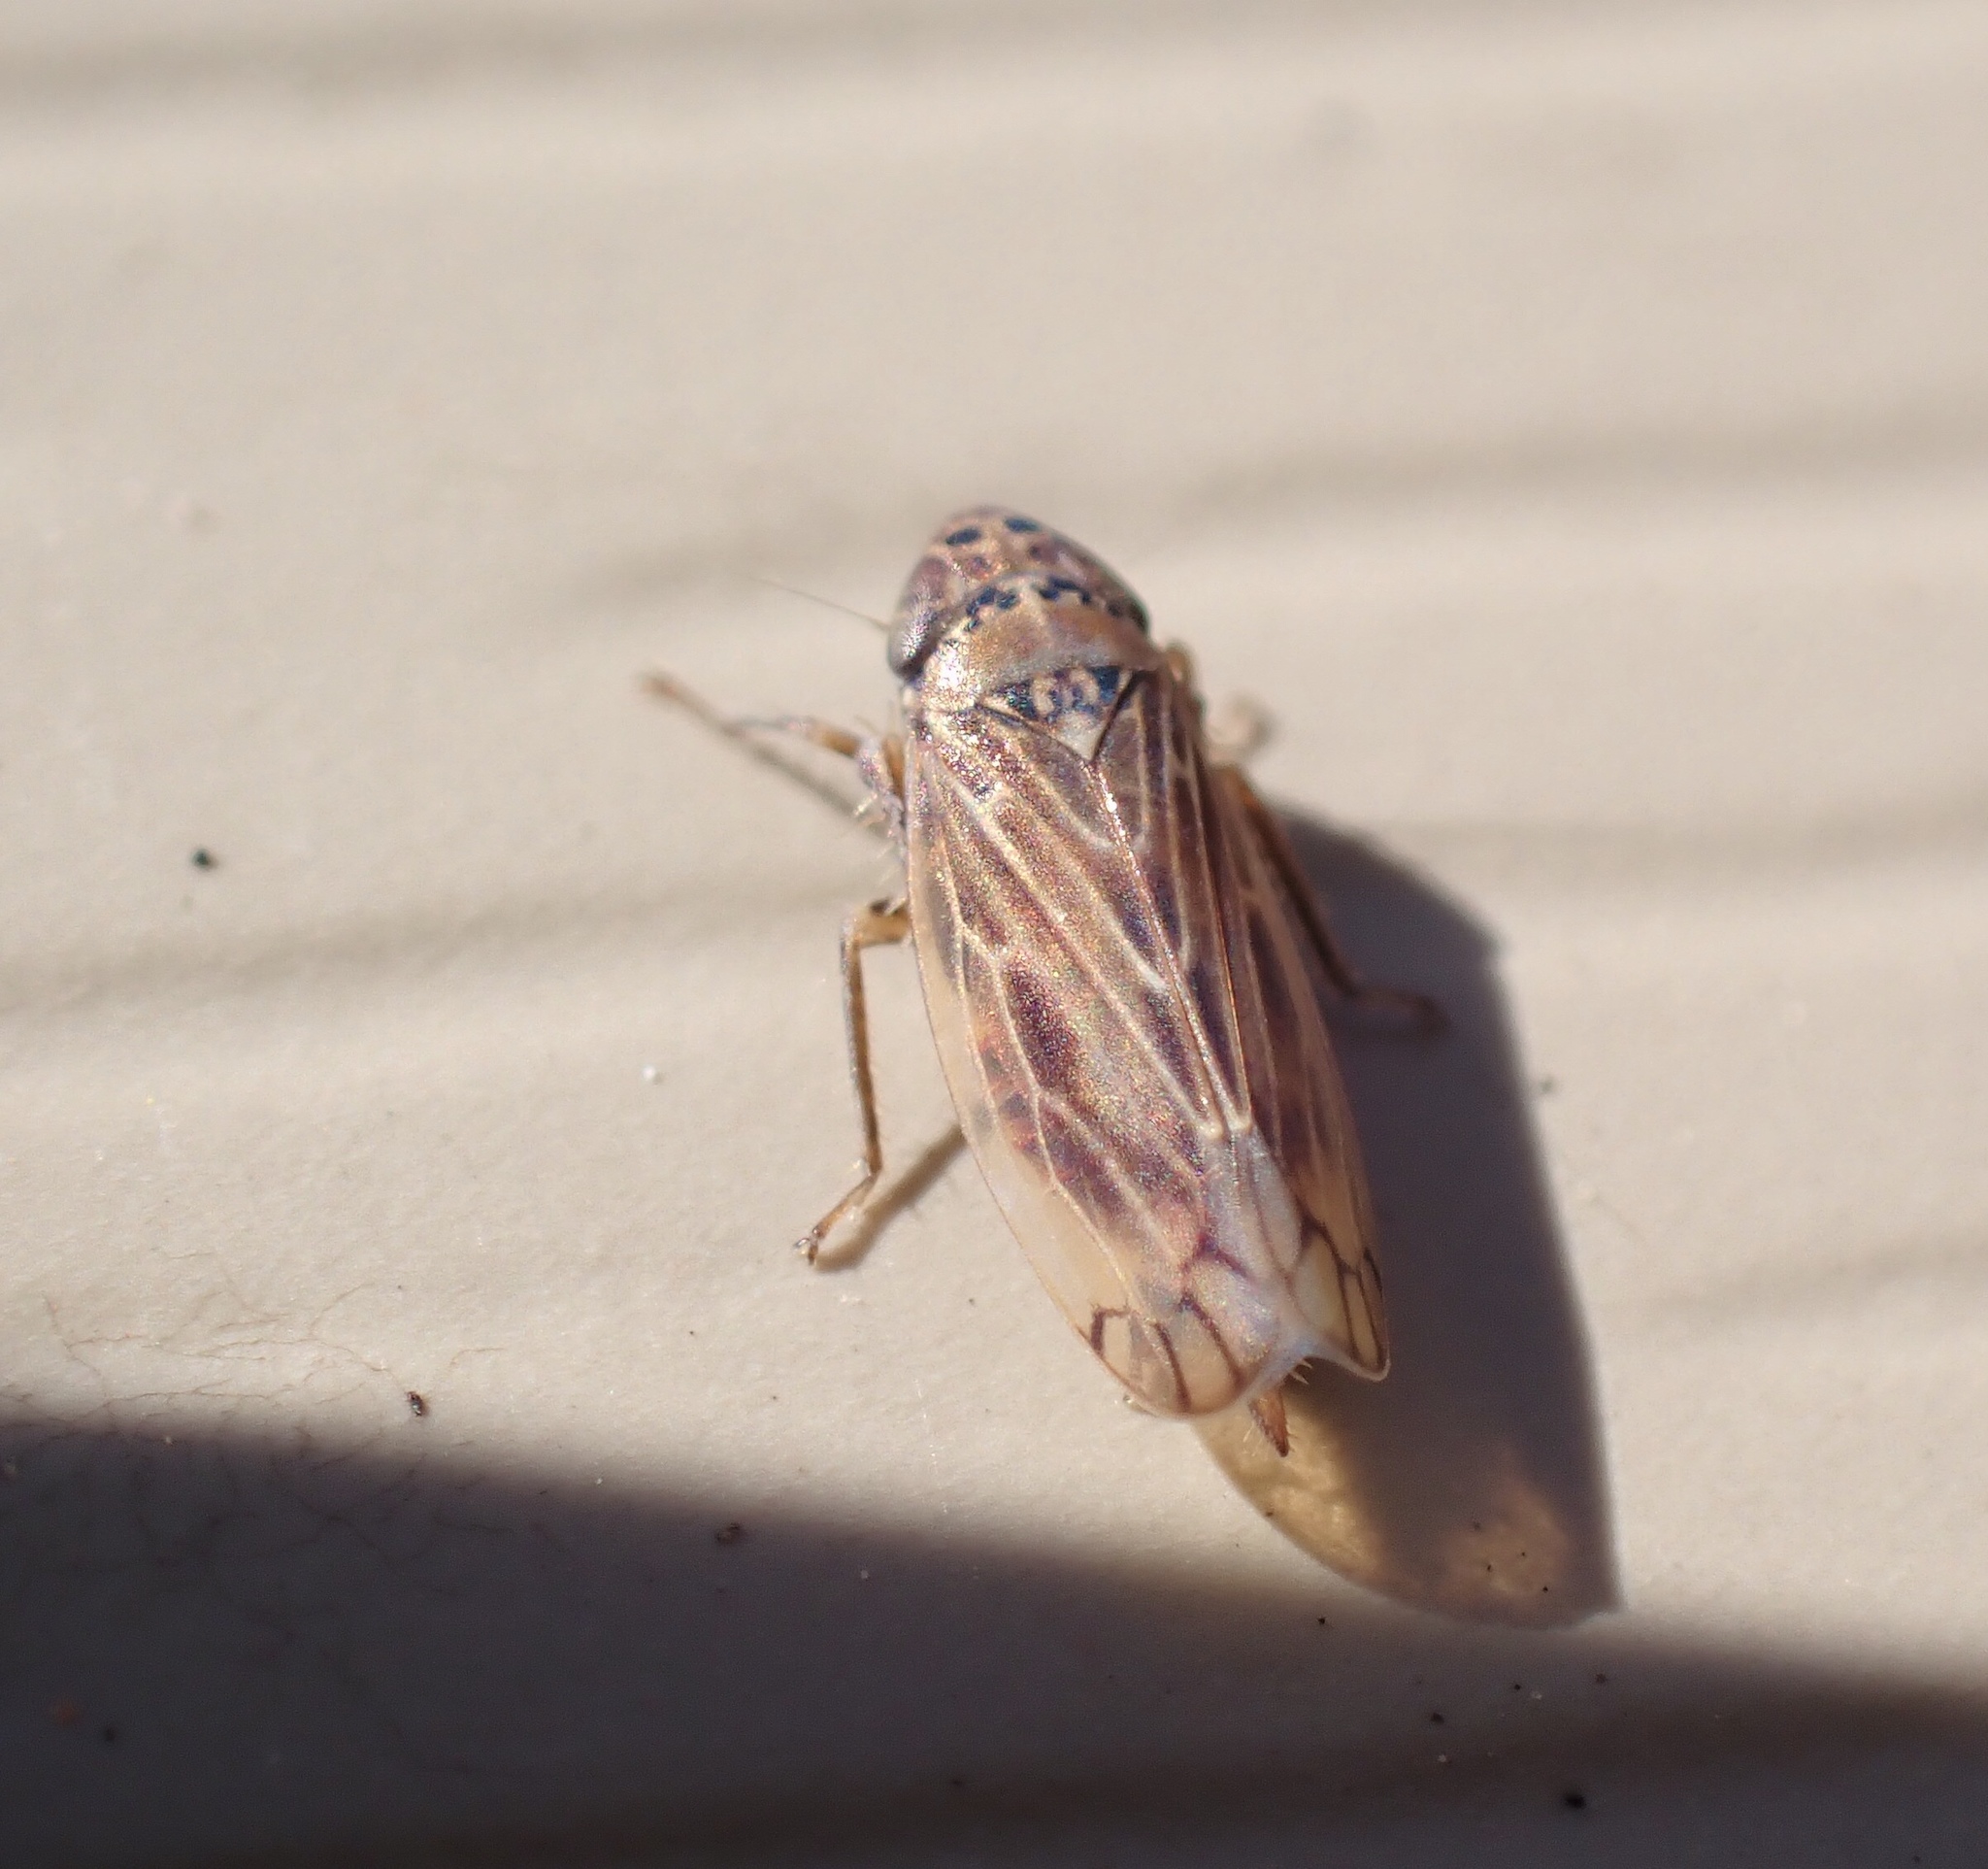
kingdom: Animalia
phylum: Arthropoda
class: Insecta
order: Hemiptera
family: Cicadellidae
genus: Stirellus
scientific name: Stirellus bicolor
